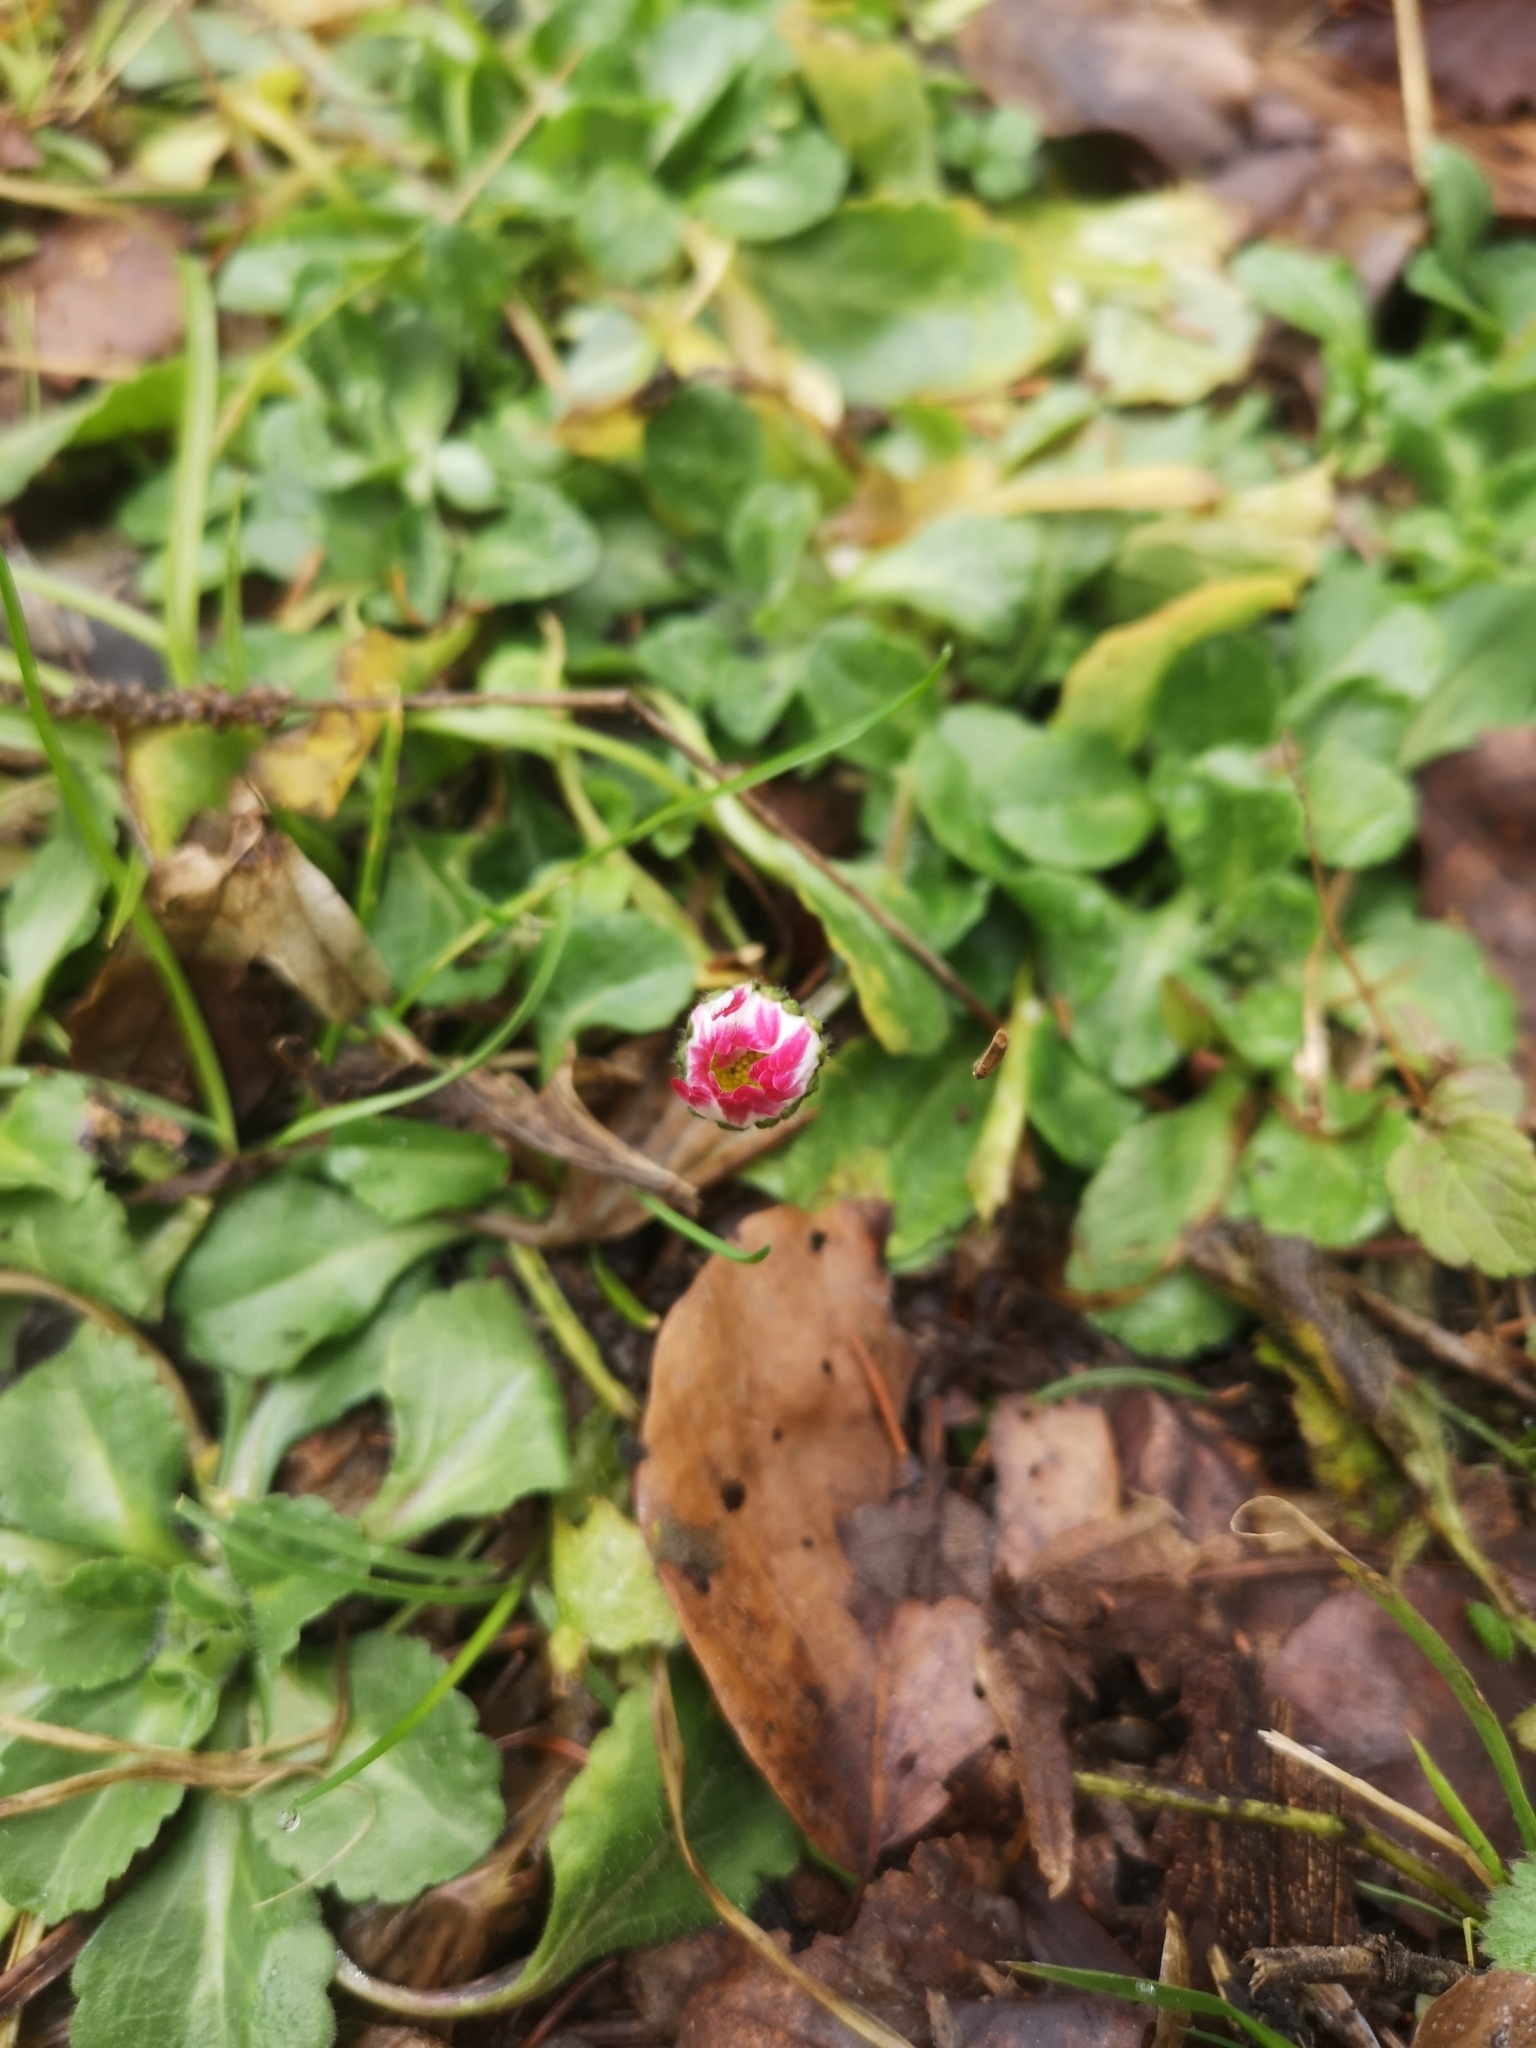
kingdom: Plantae
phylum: Tracheophyta
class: Magnoliopsida
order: Asterales
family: Asteraceae
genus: Bellis
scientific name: Bellis perennis
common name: Lawndaisy
